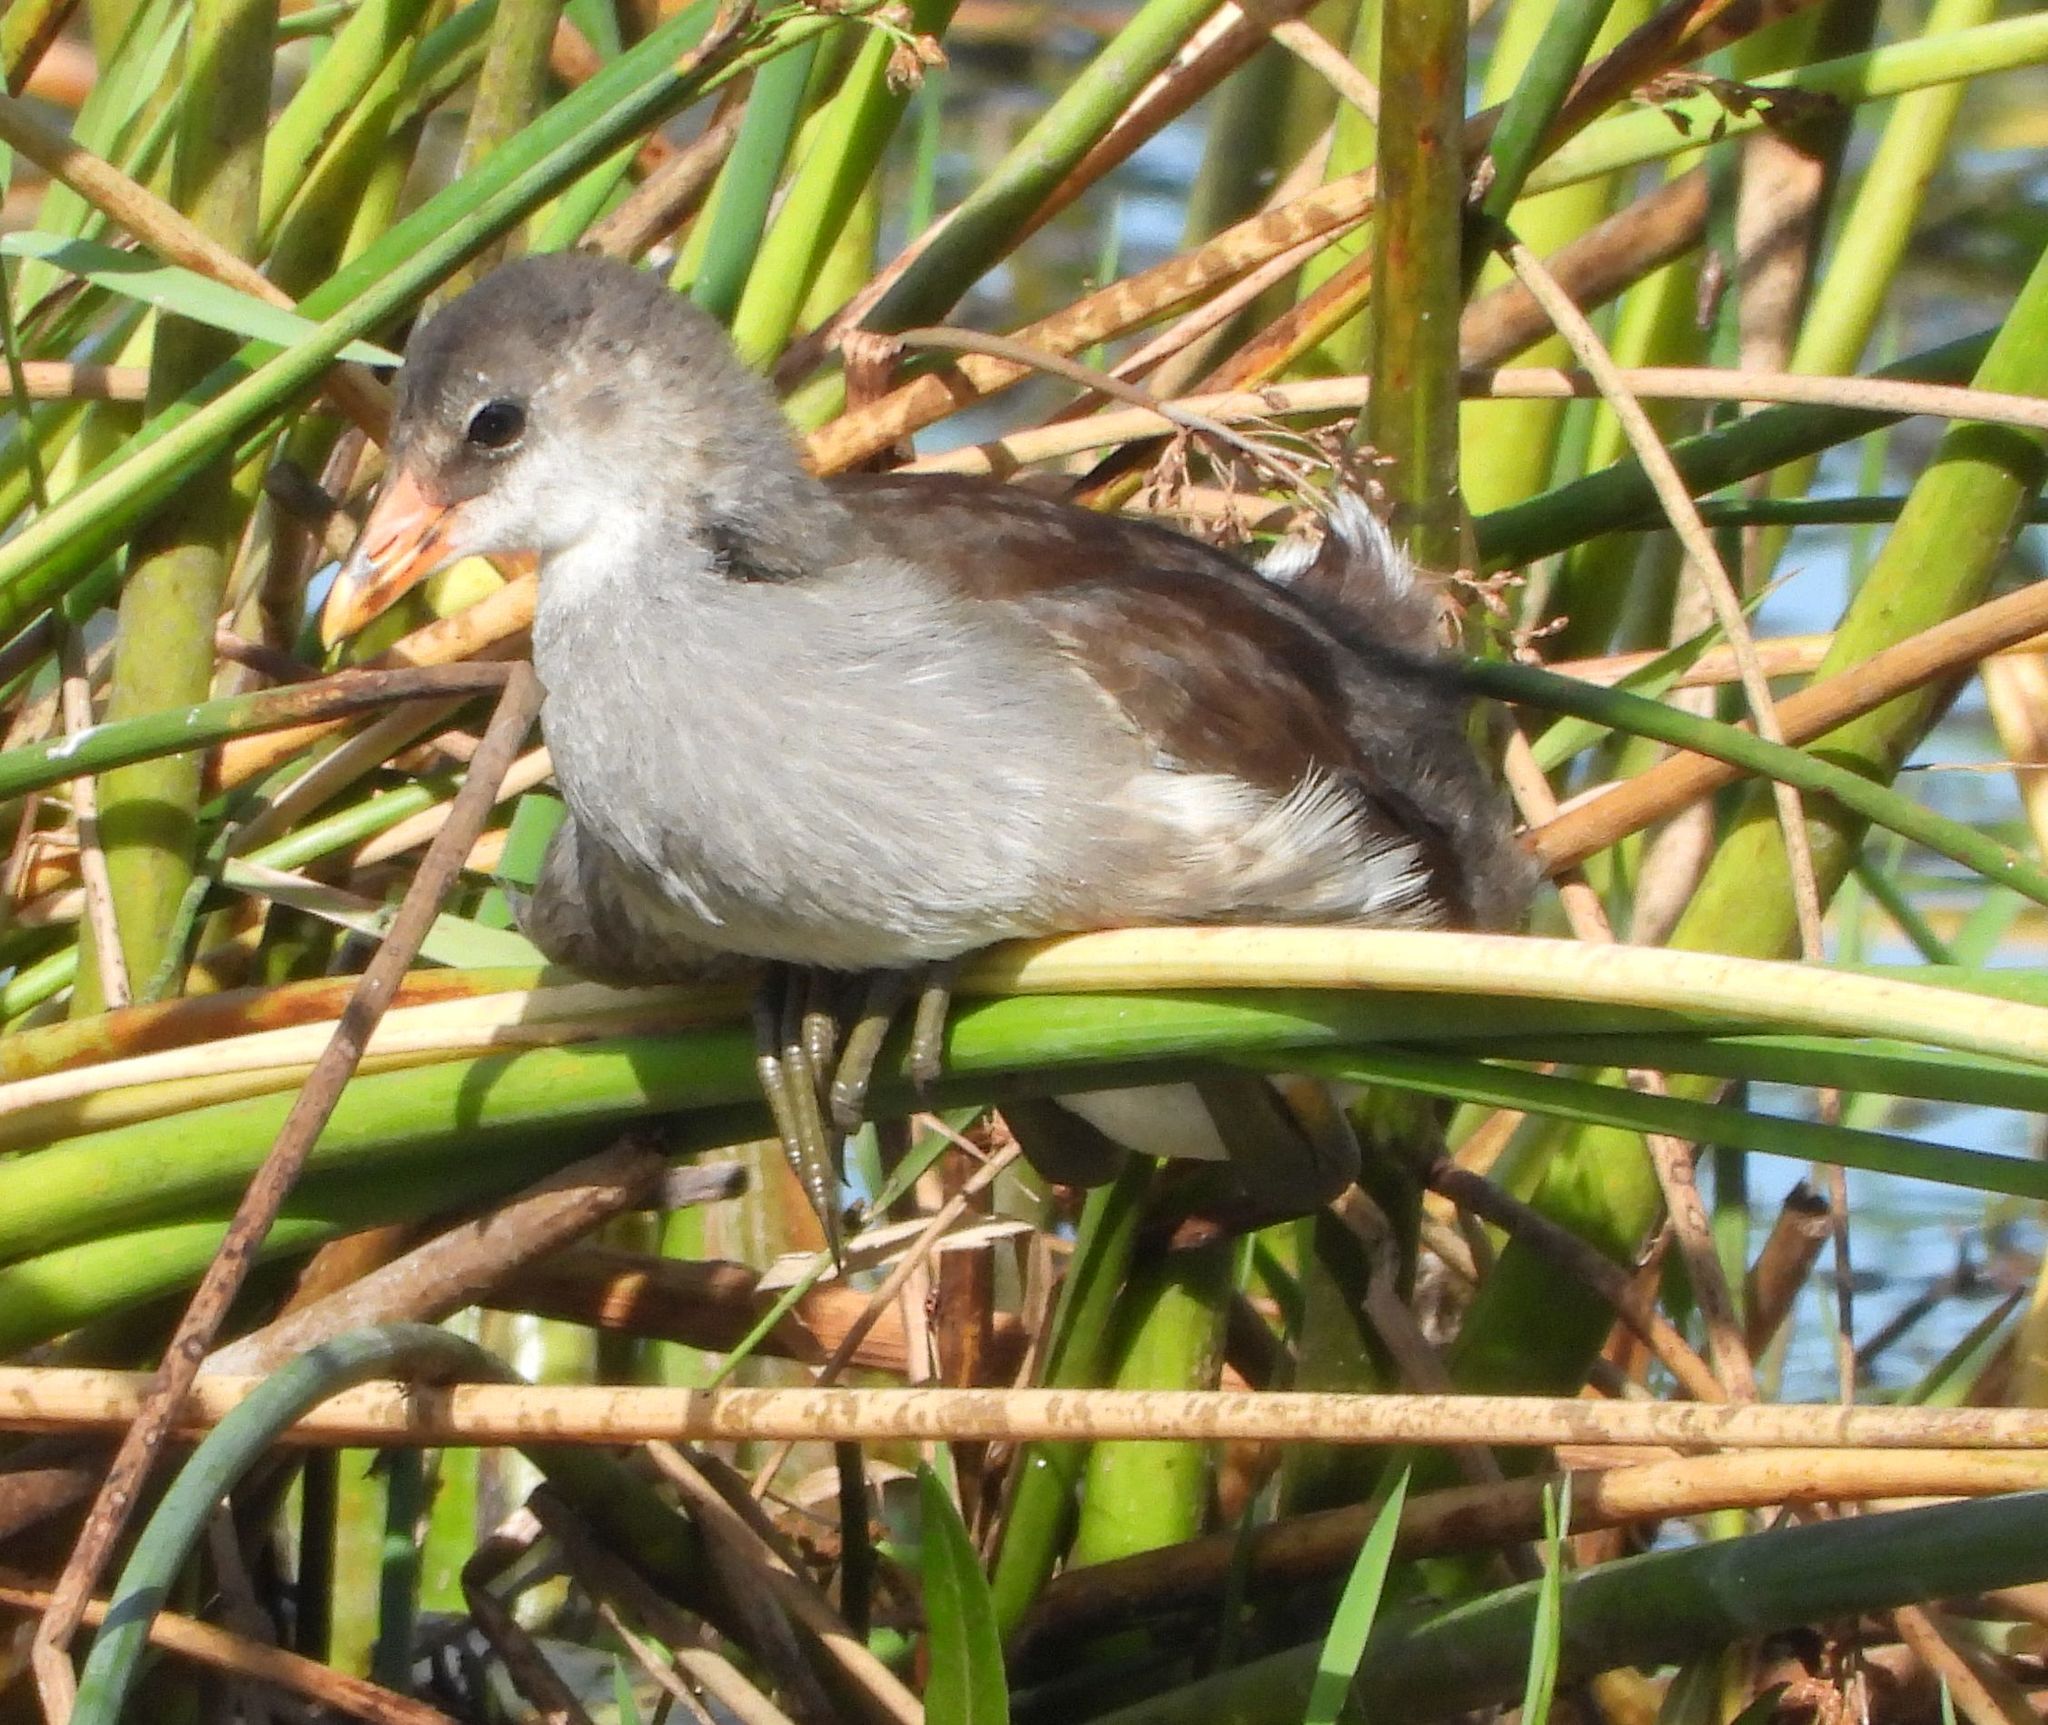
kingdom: Animalia
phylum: Chordata
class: Aves
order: Gruiformes
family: Rallidae
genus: Gallinula
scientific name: Gallinula chloropus
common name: Common moorhen
